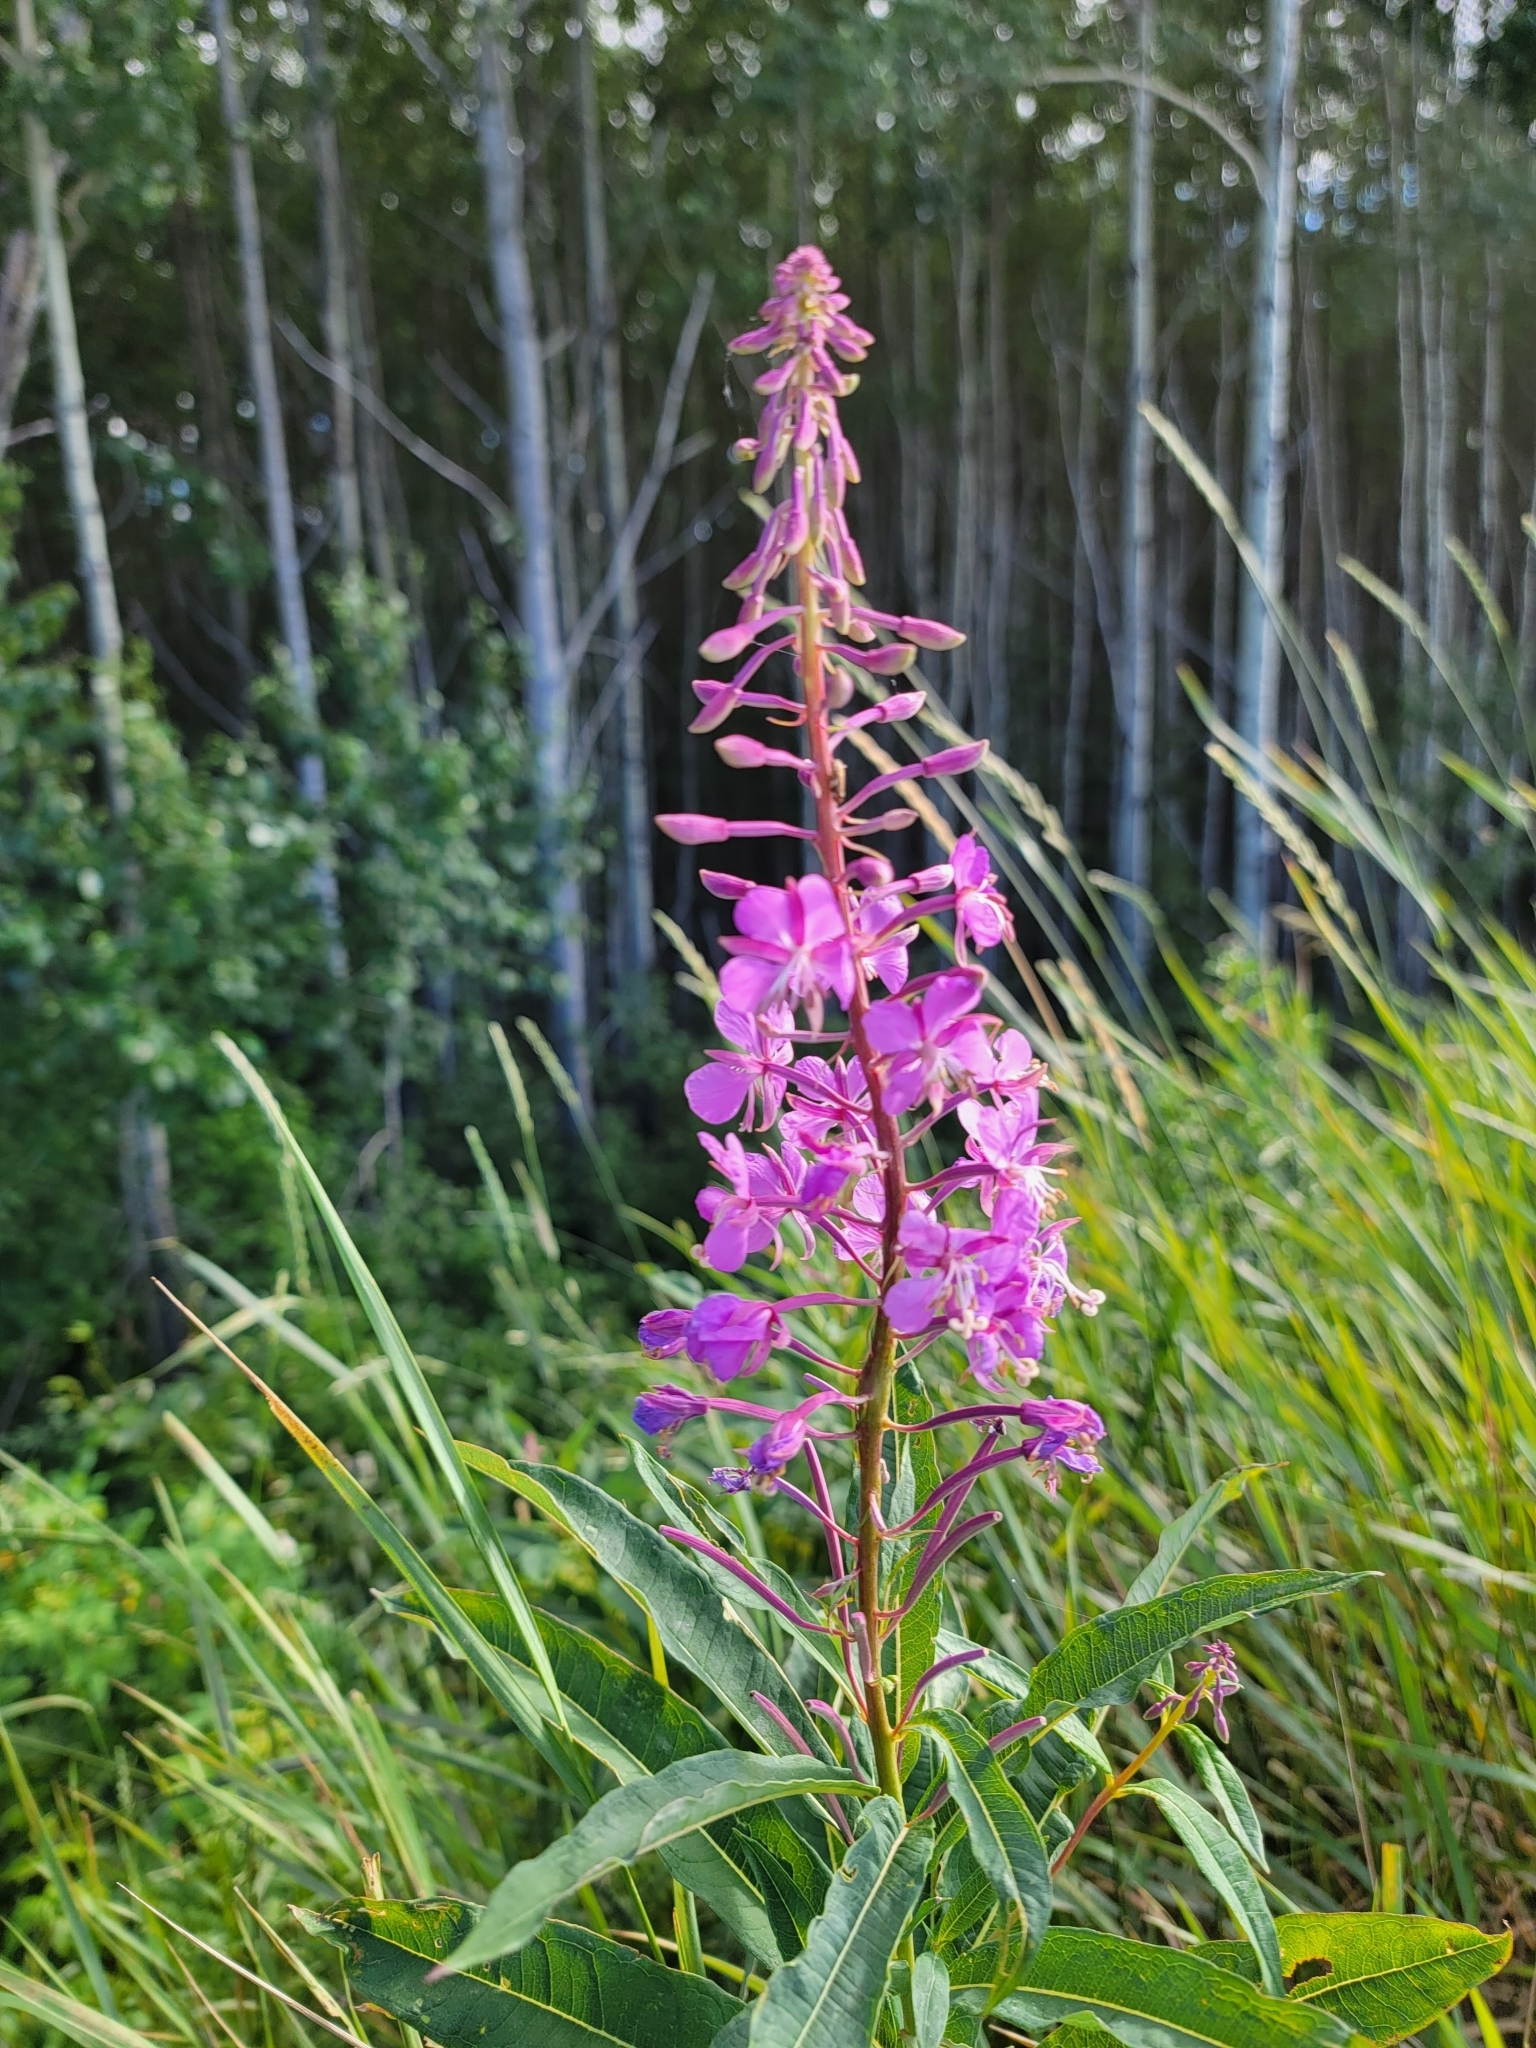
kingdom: Plantae
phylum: Tracheophyta
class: Magnoliopsida
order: Myrtales
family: Onagraceae
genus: Chamaenerion
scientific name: Chamaenerion angustifolium
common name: Fireweed
